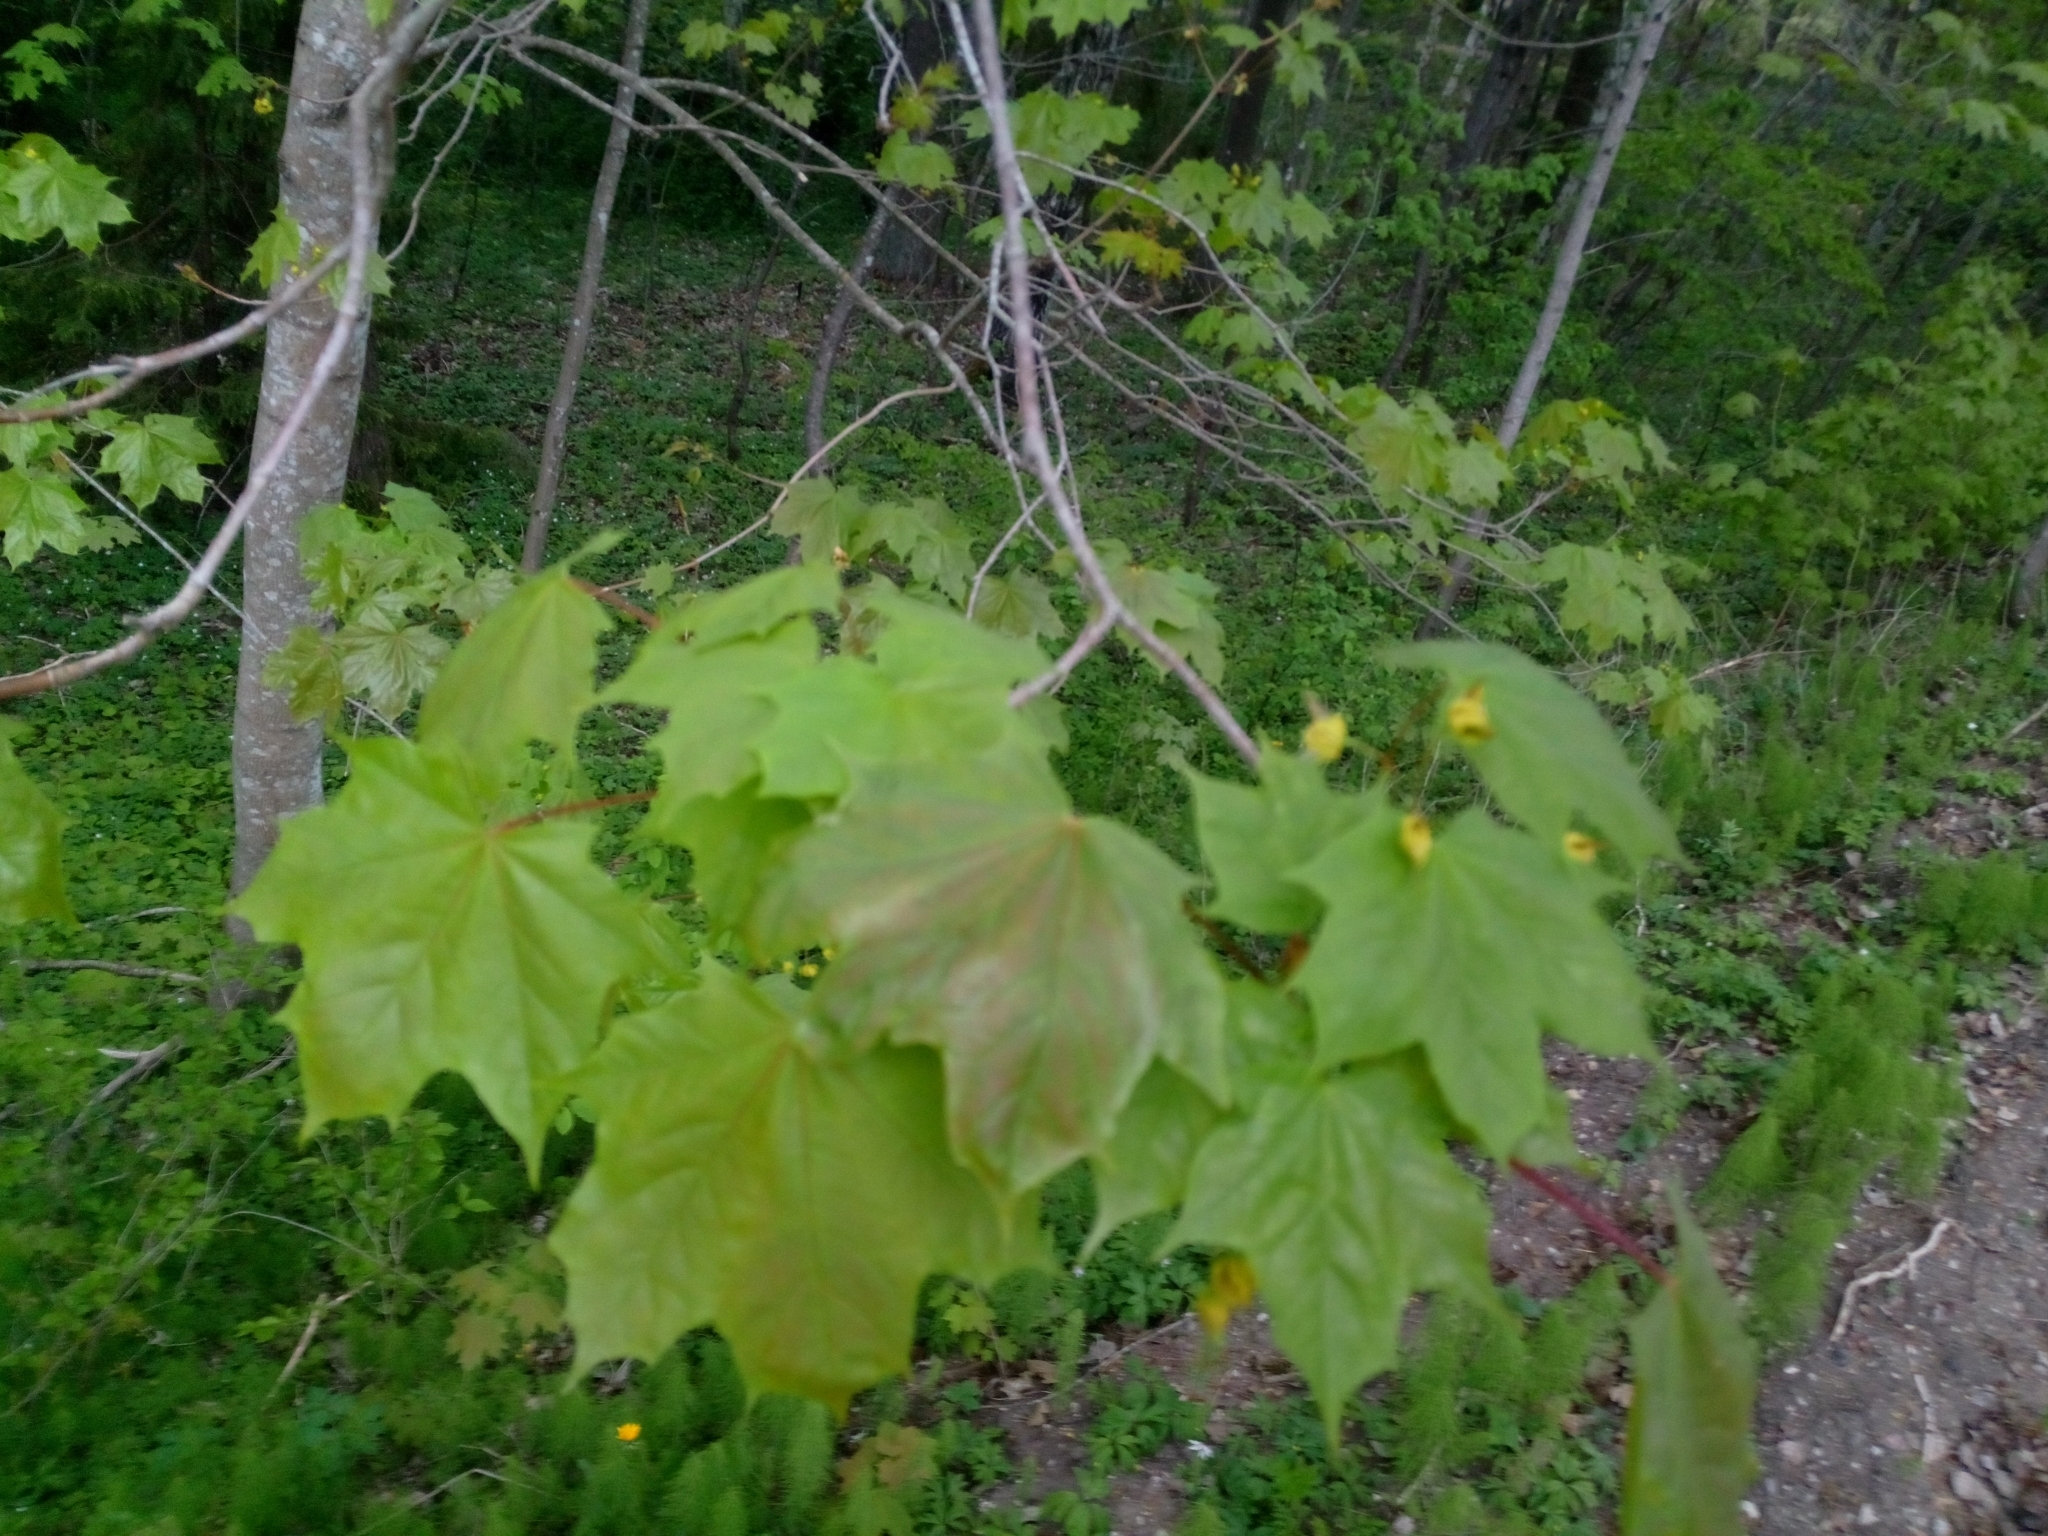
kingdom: Plantae
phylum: Tracheophyta
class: Magnoliopsida
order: Sapindales
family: Sapindaceae
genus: Acer
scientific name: Acer platanoides
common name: Norway maple
